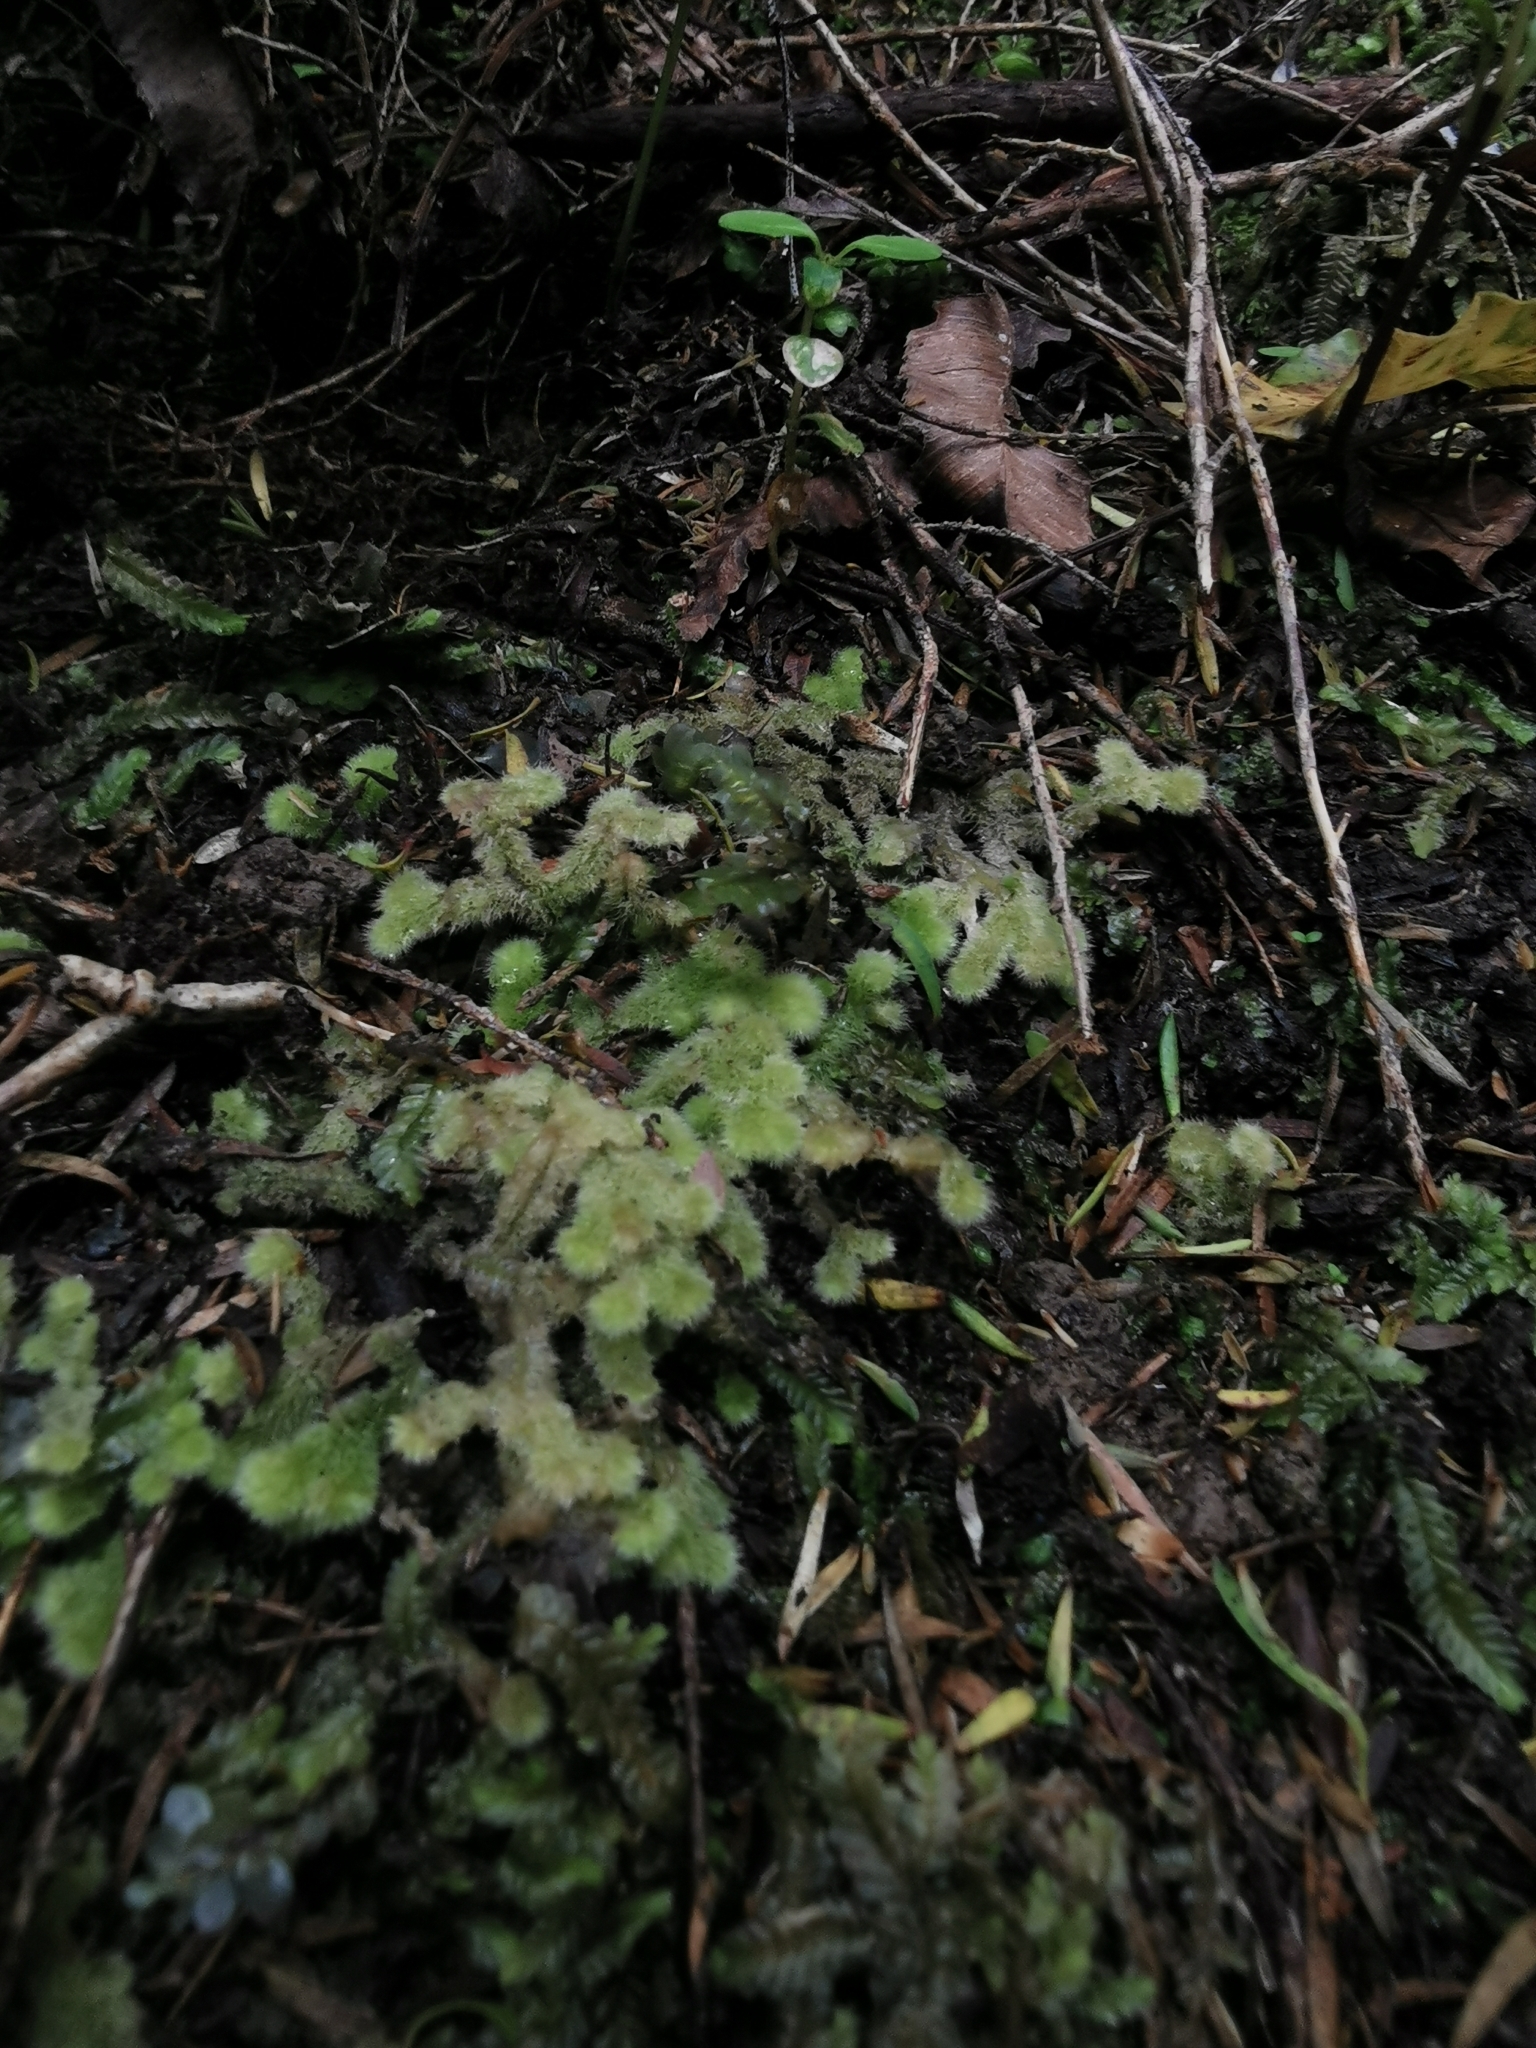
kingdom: Plantae
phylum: Marchantiophyta
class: Jungermanniopsida
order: Jungermanniales
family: Trichocoleaceae
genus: Leiomitra
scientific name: Leiomitra lanata
